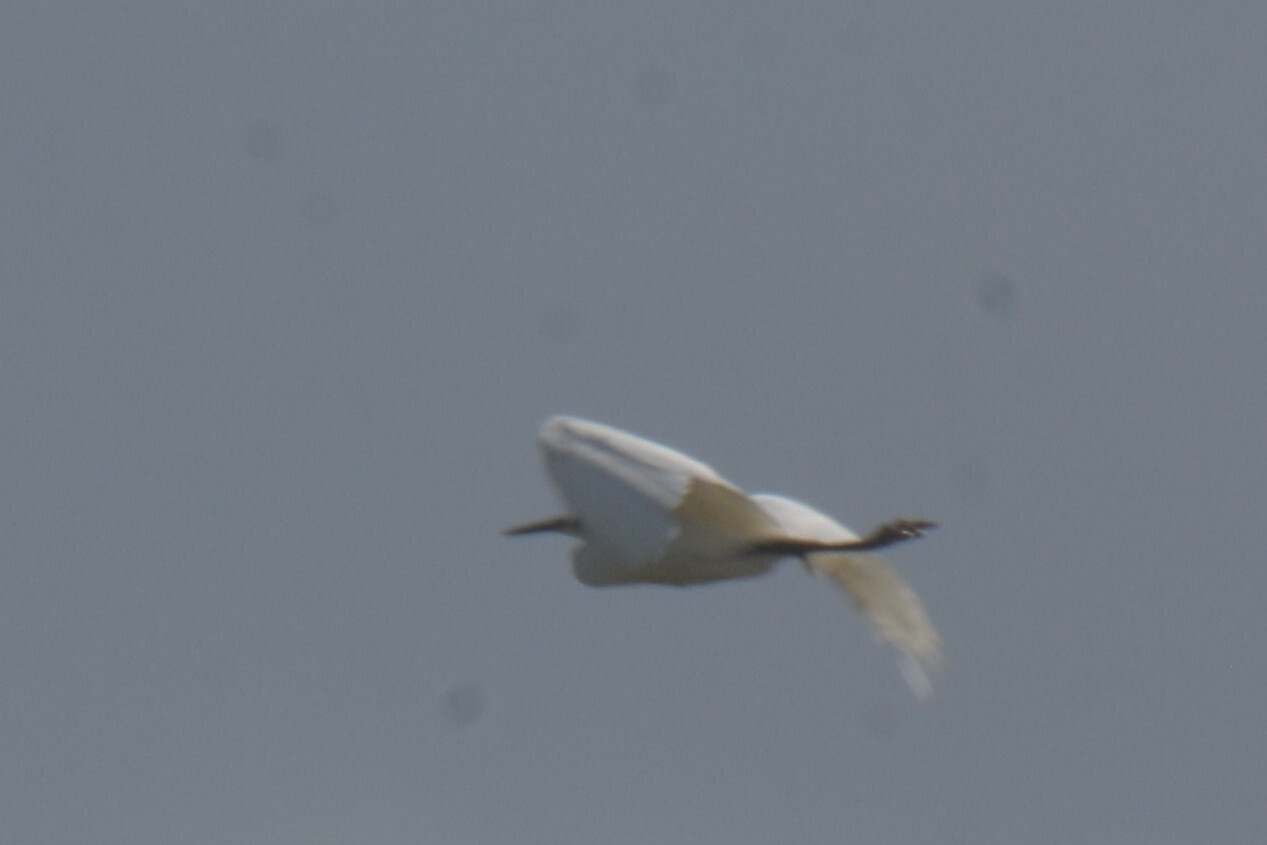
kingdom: Animalia
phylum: Chordata
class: Aves
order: Pelecaniformes
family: Ardeidae
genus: Egretta
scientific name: Egretta garzetta
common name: Little egret
